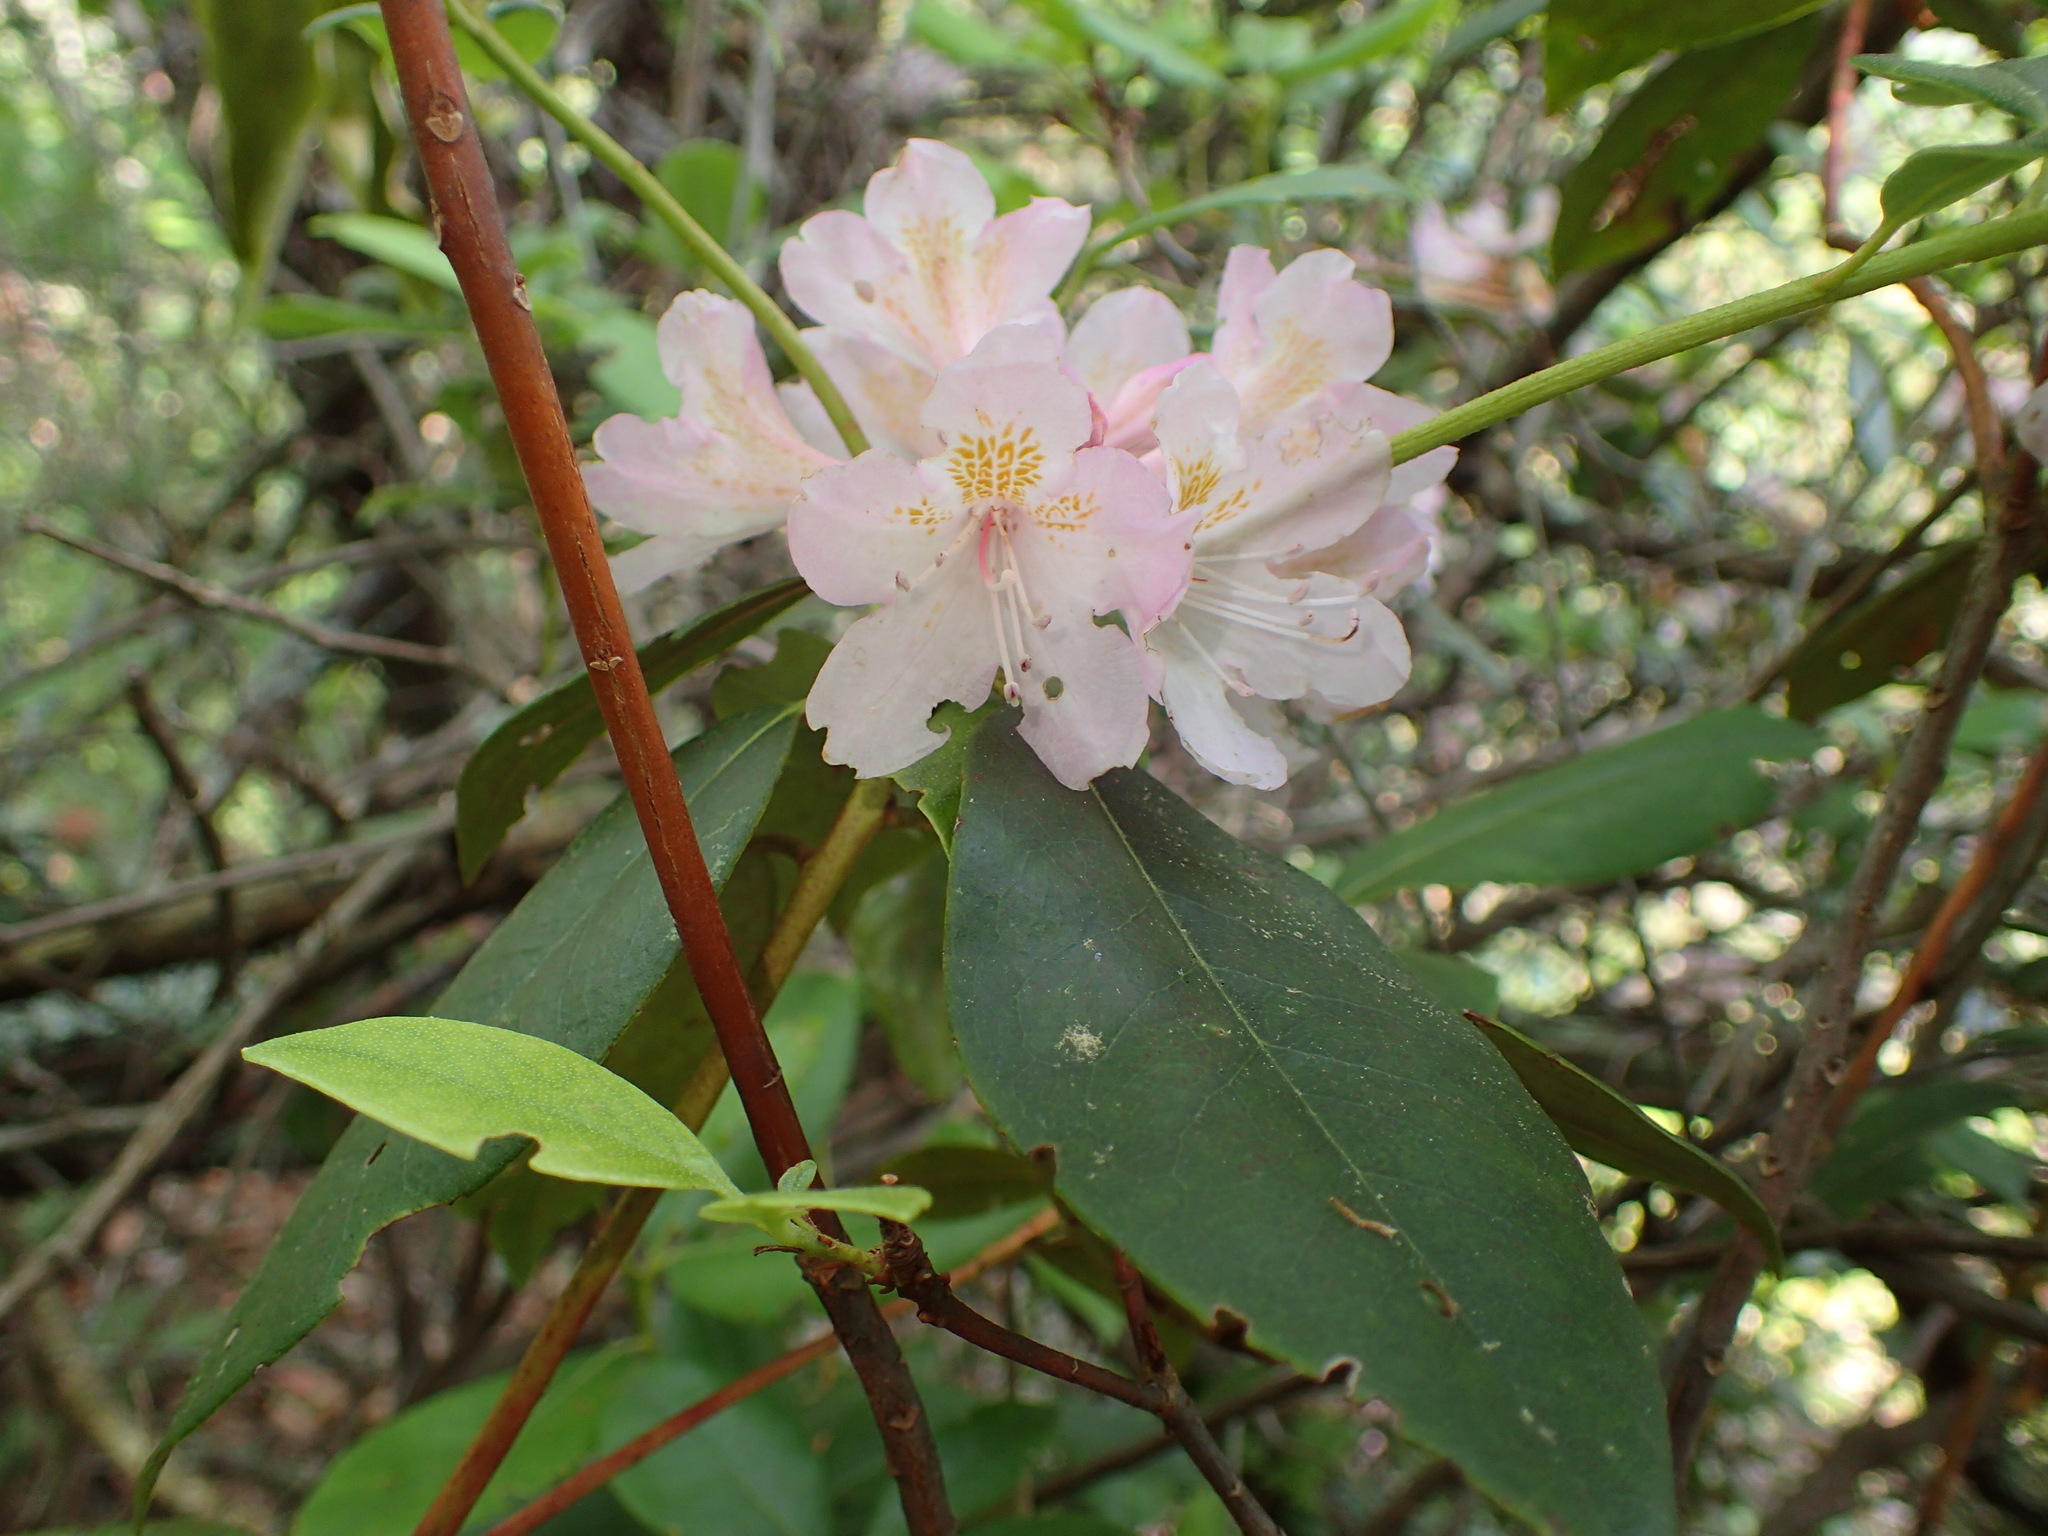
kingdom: Plantae
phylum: Tracheophyta
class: Magnoliopsida
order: Ericales
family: Ericaceae
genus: Rhododendron
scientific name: Rhododendron minus
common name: Piedmont rhododendron
